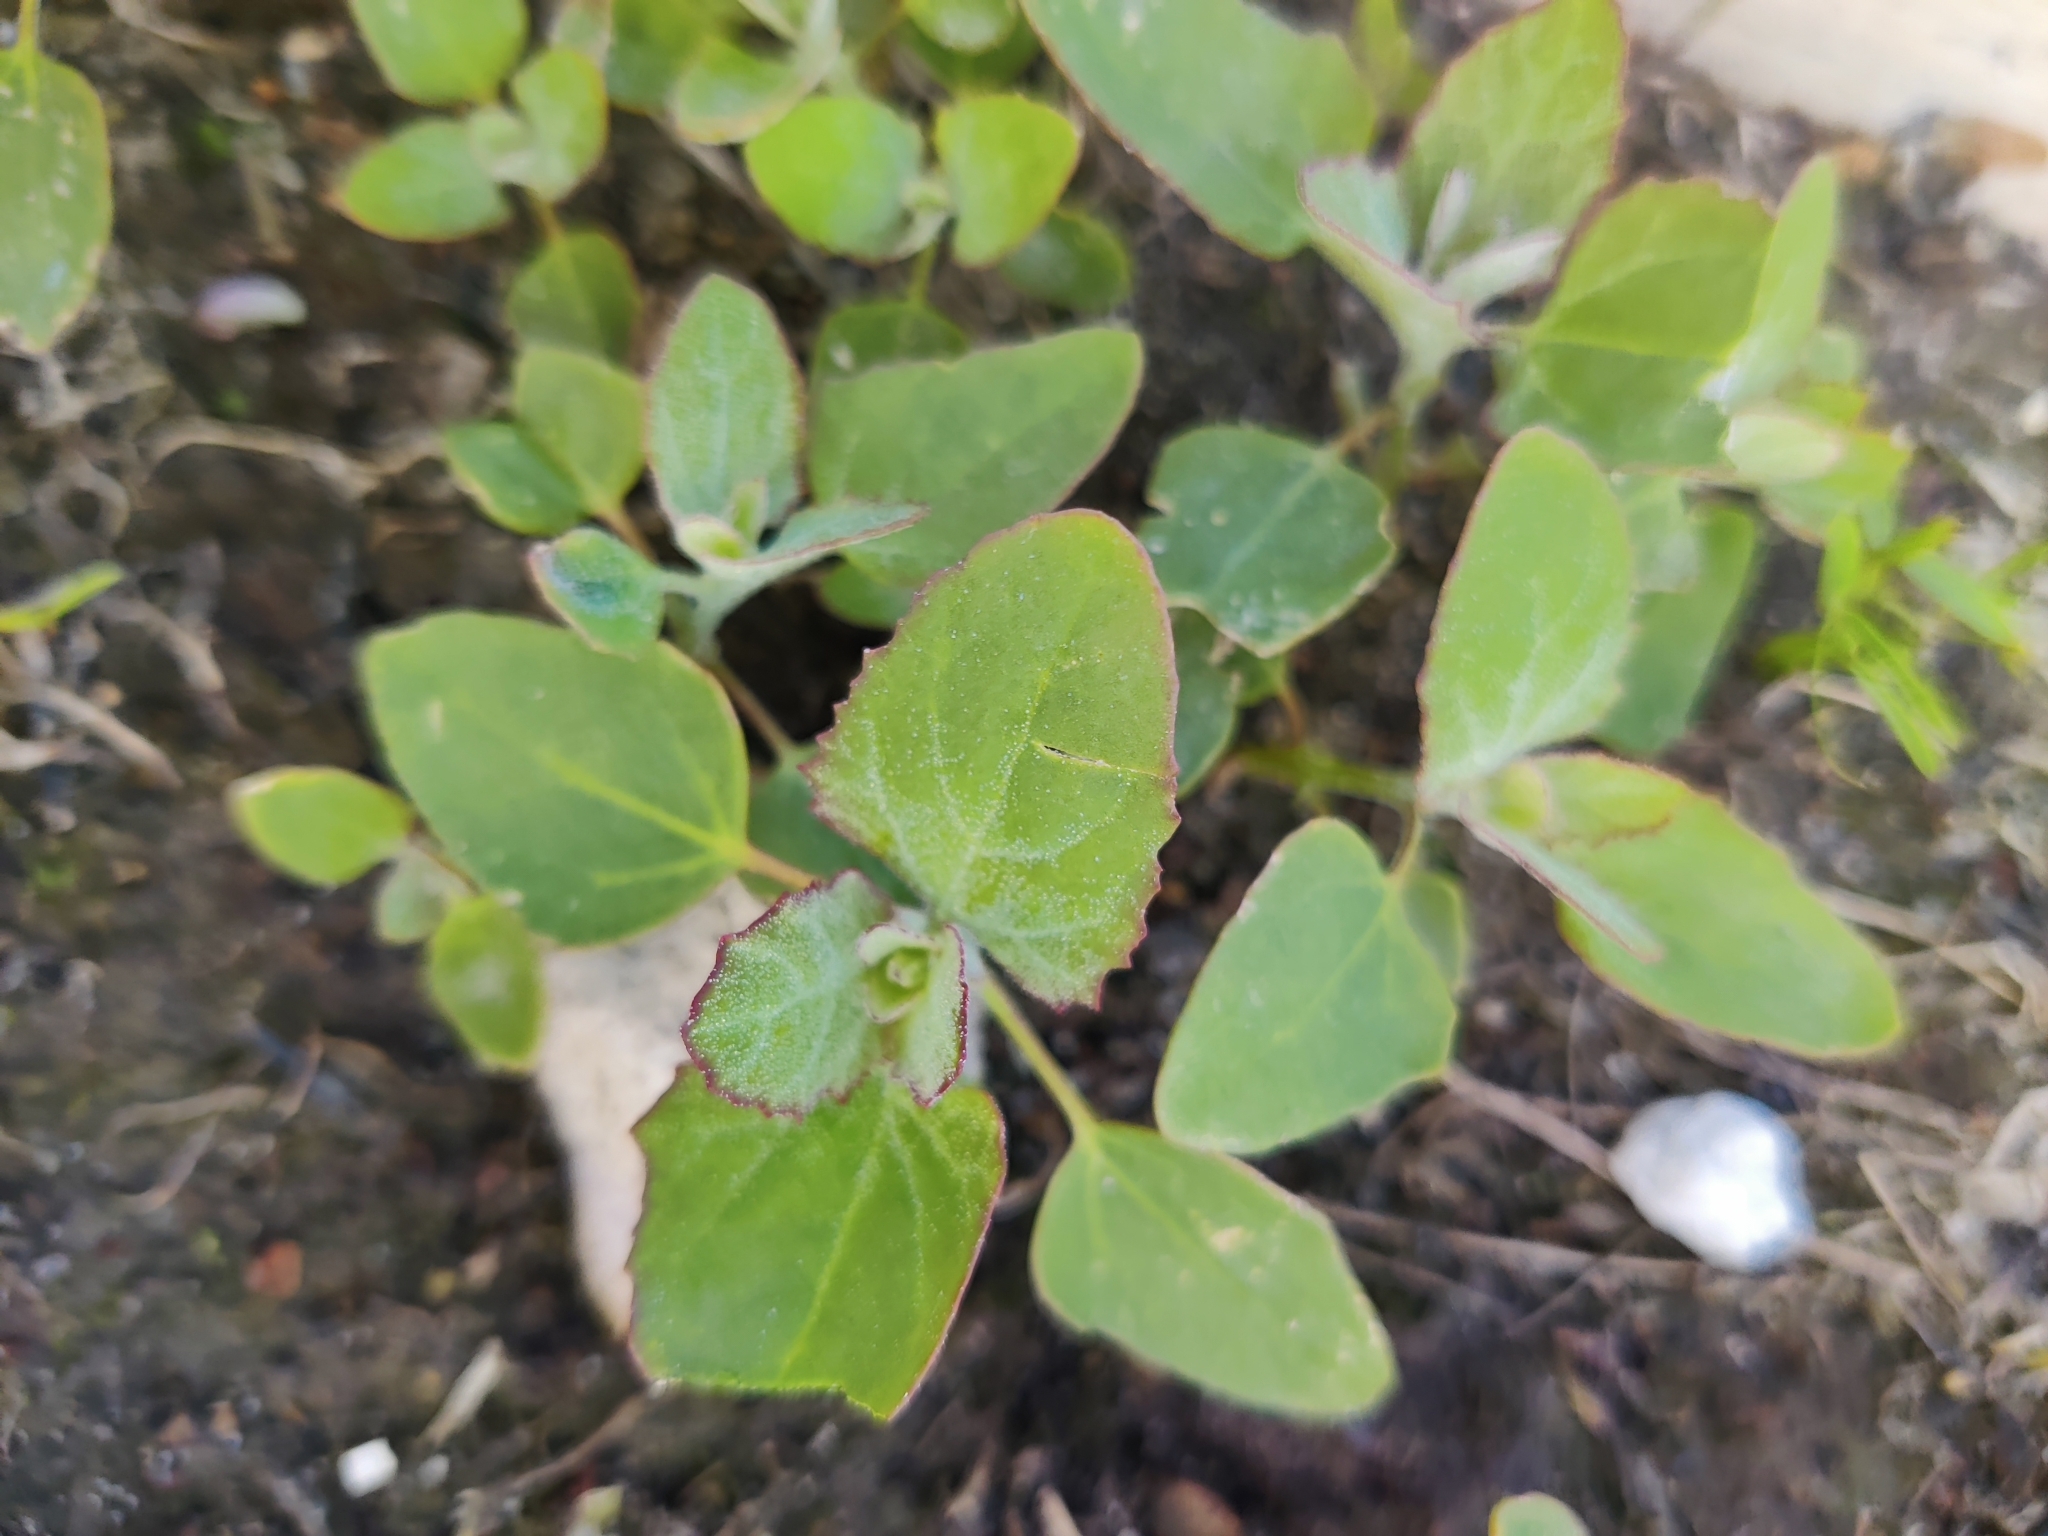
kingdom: Plantae
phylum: Tracheophyta
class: Magnoliopsida
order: Caryophyllales
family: Amaranthaceae
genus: Chenopodium
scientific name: Chenopodium album
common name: Fat-hen
